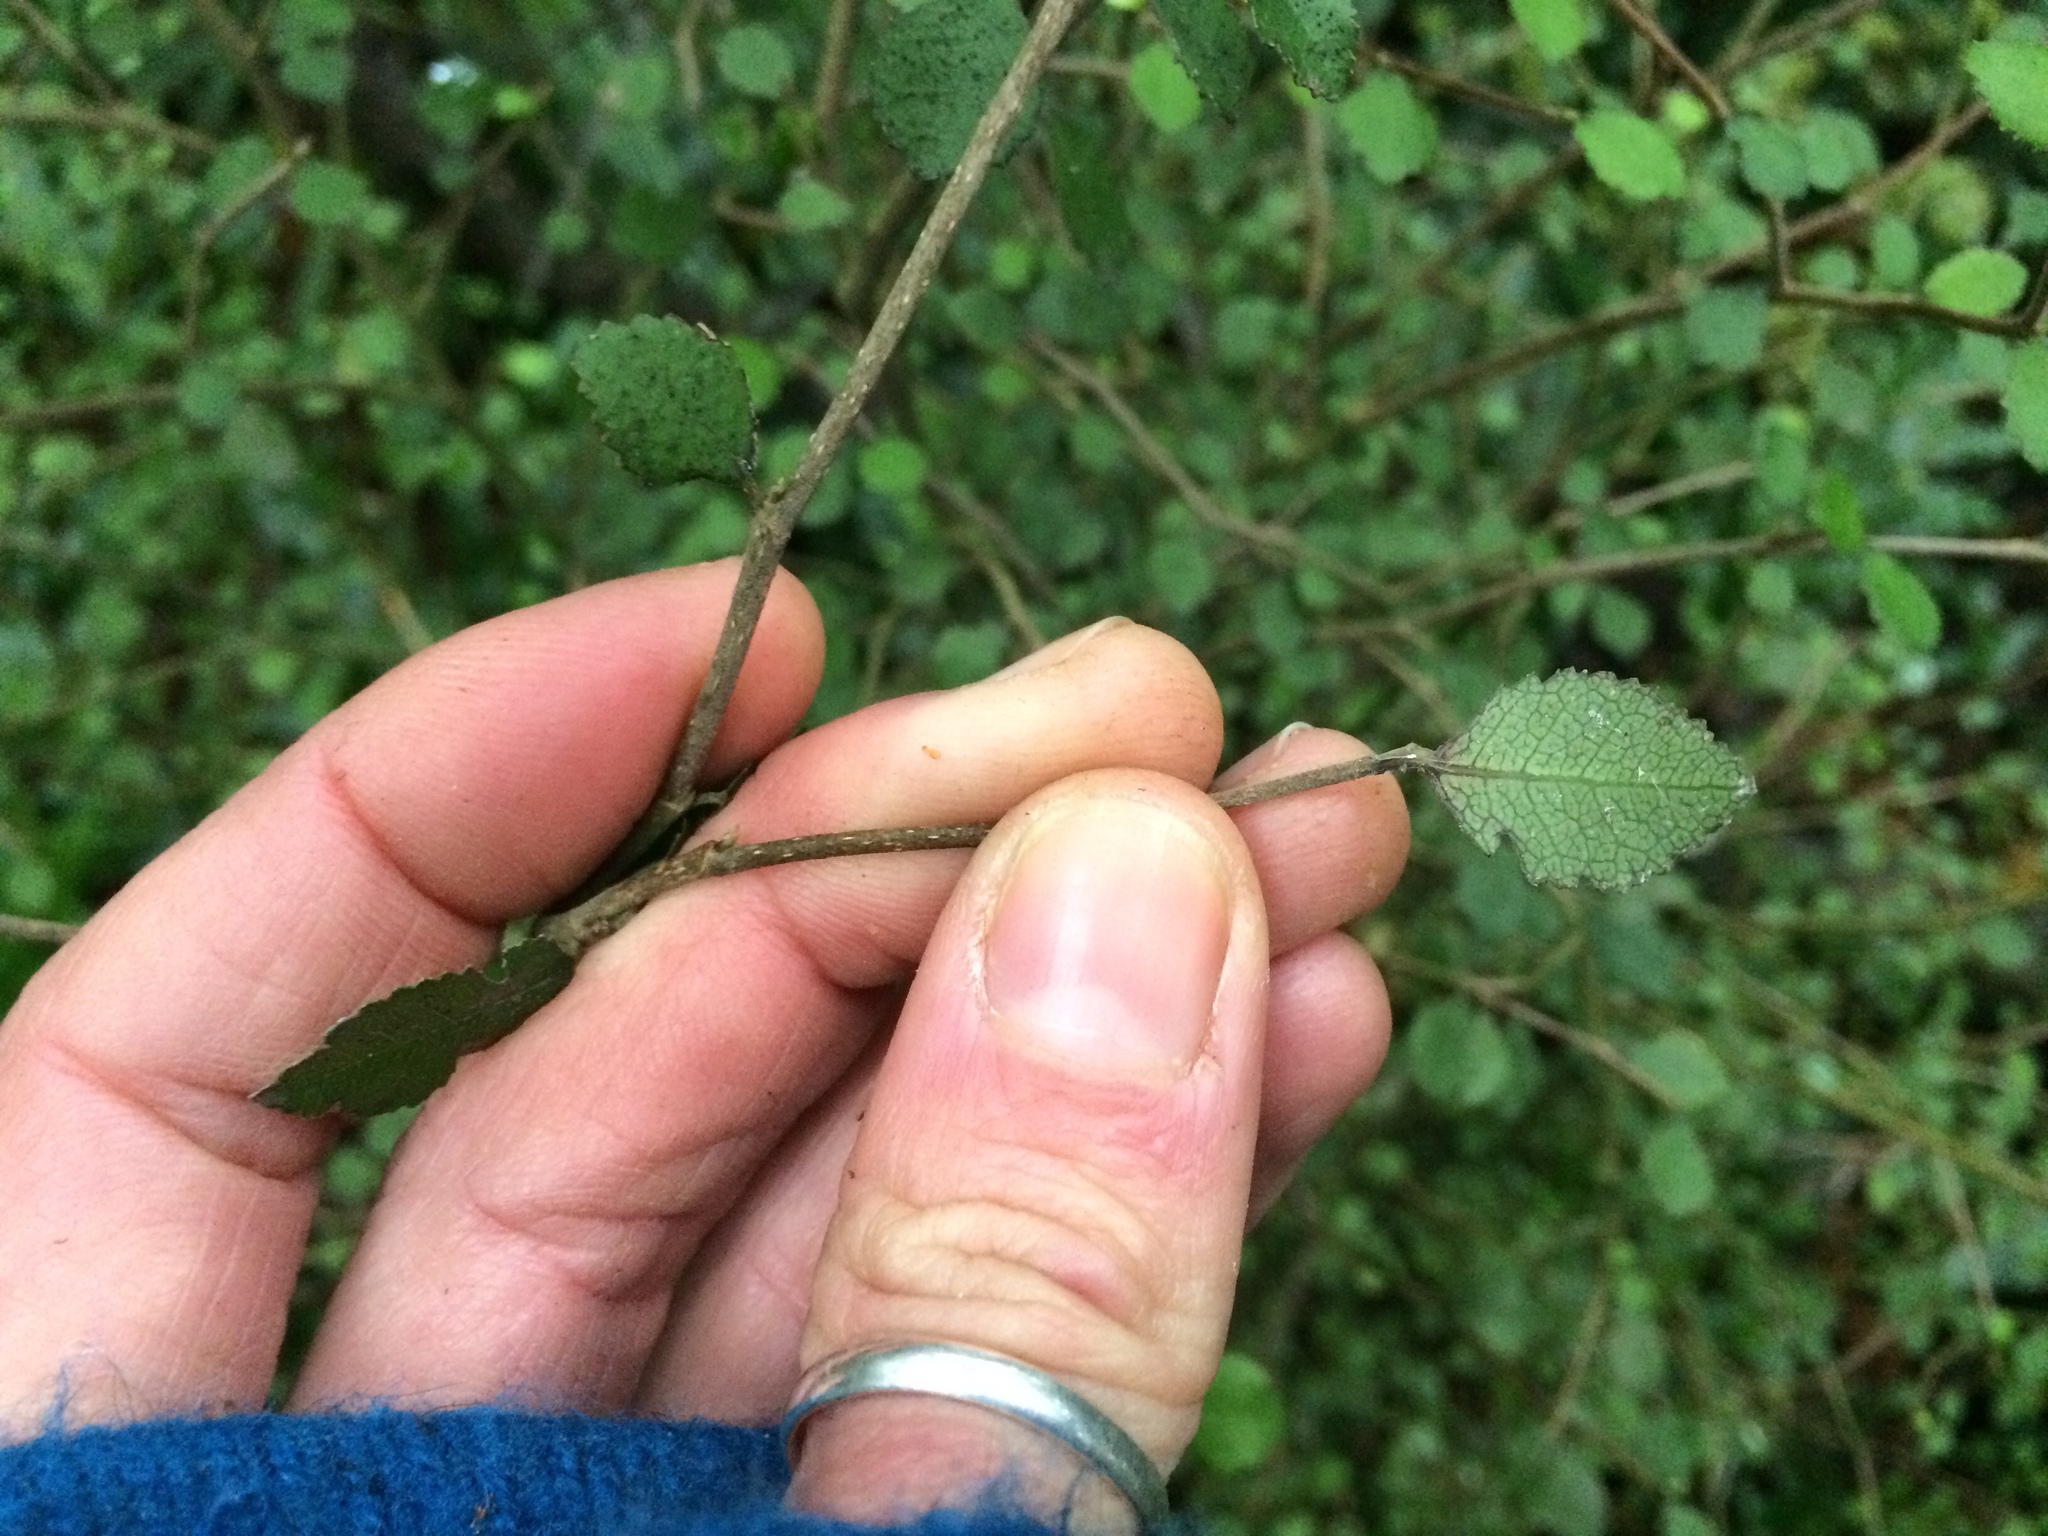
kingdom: Plantae
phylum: Tracheophyta
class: Magnoliopsida
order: Rosales
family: Moraceae
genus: Paratrophis
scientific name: Paratrophis microphylla
